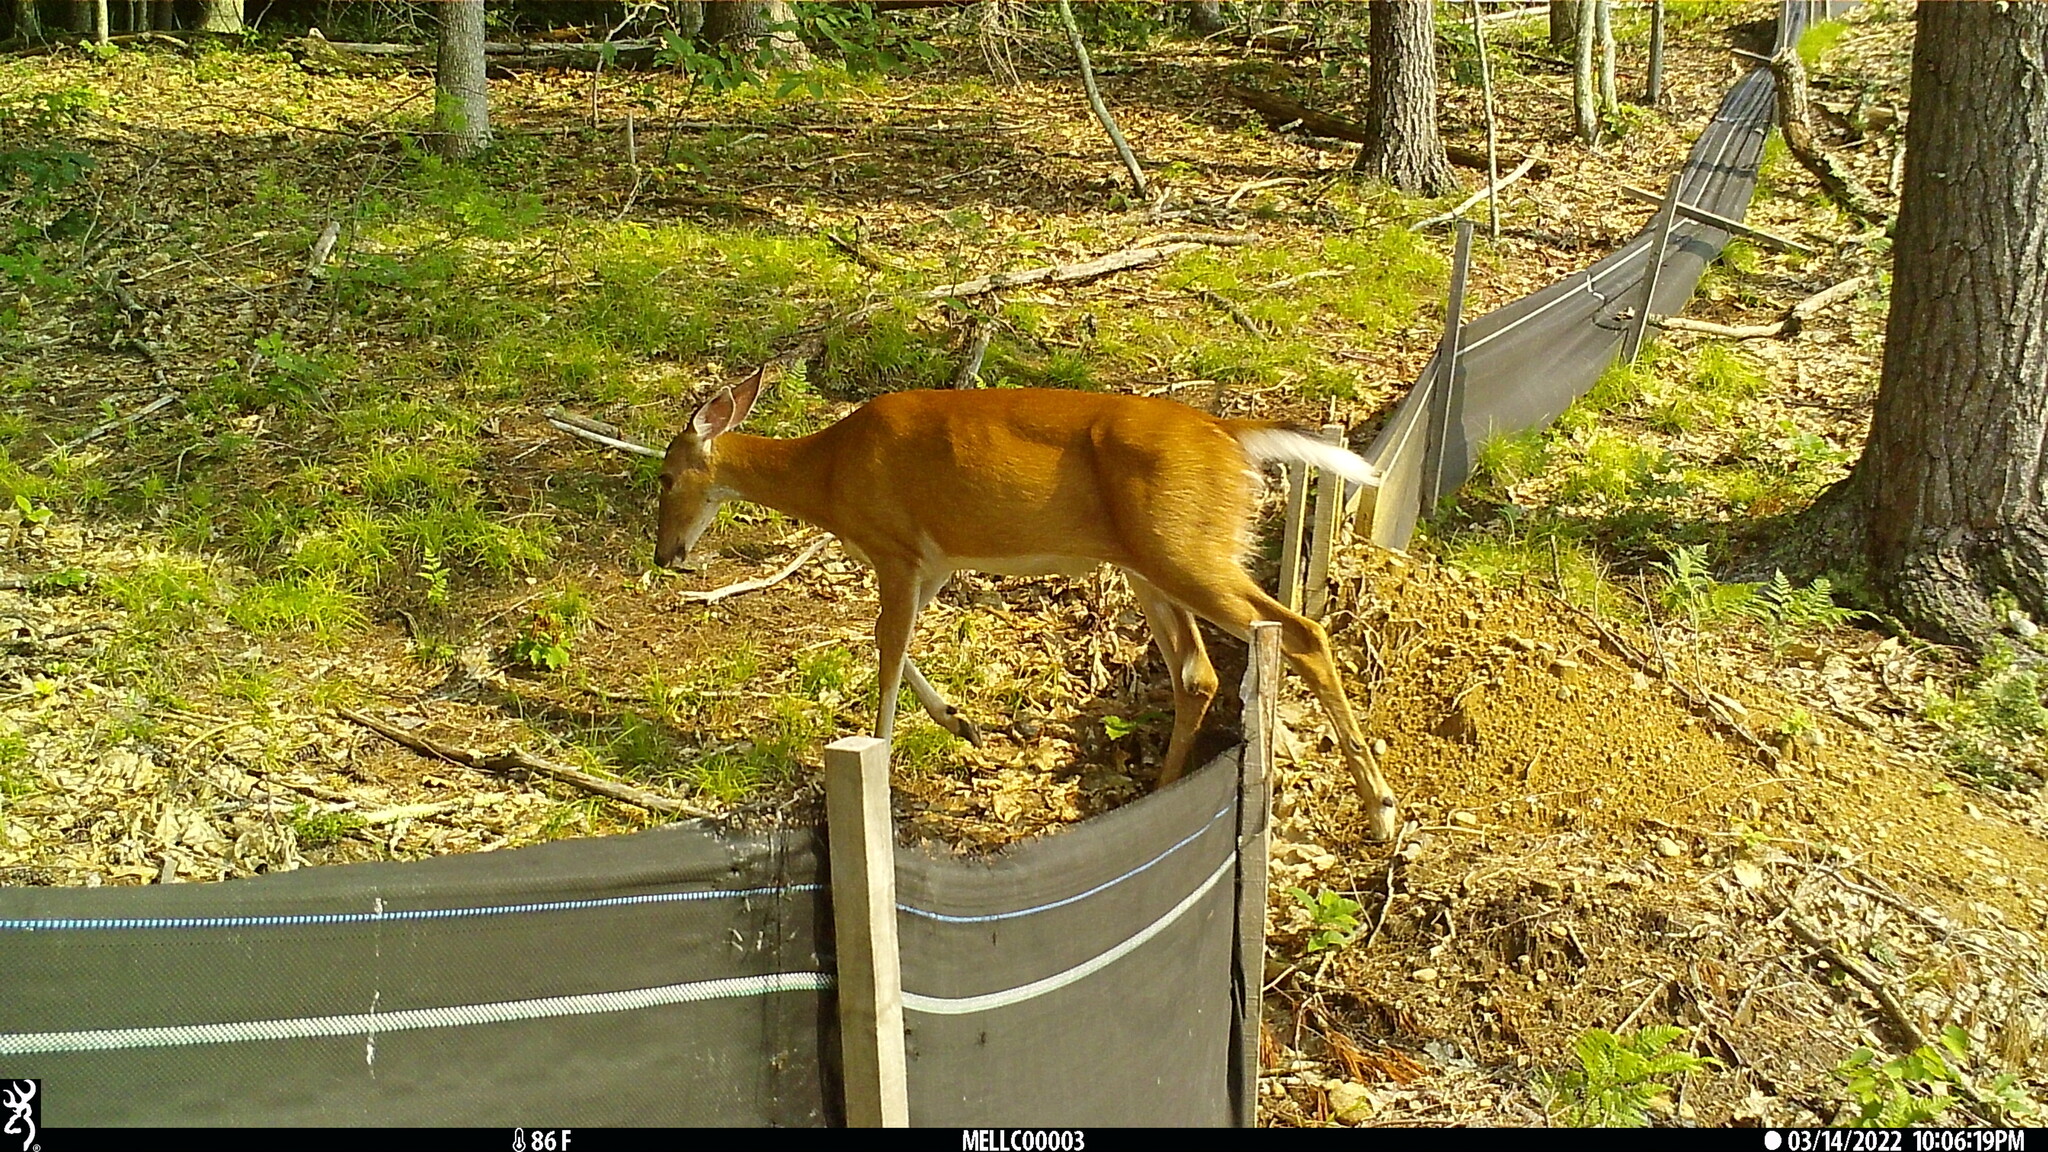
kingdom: Animalia
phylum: Chordata
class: Mammalia
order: Artiodactyla
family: Cervidae
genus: Odocoileus
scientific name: Odocoileus virginianus
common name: White-tailed deer
